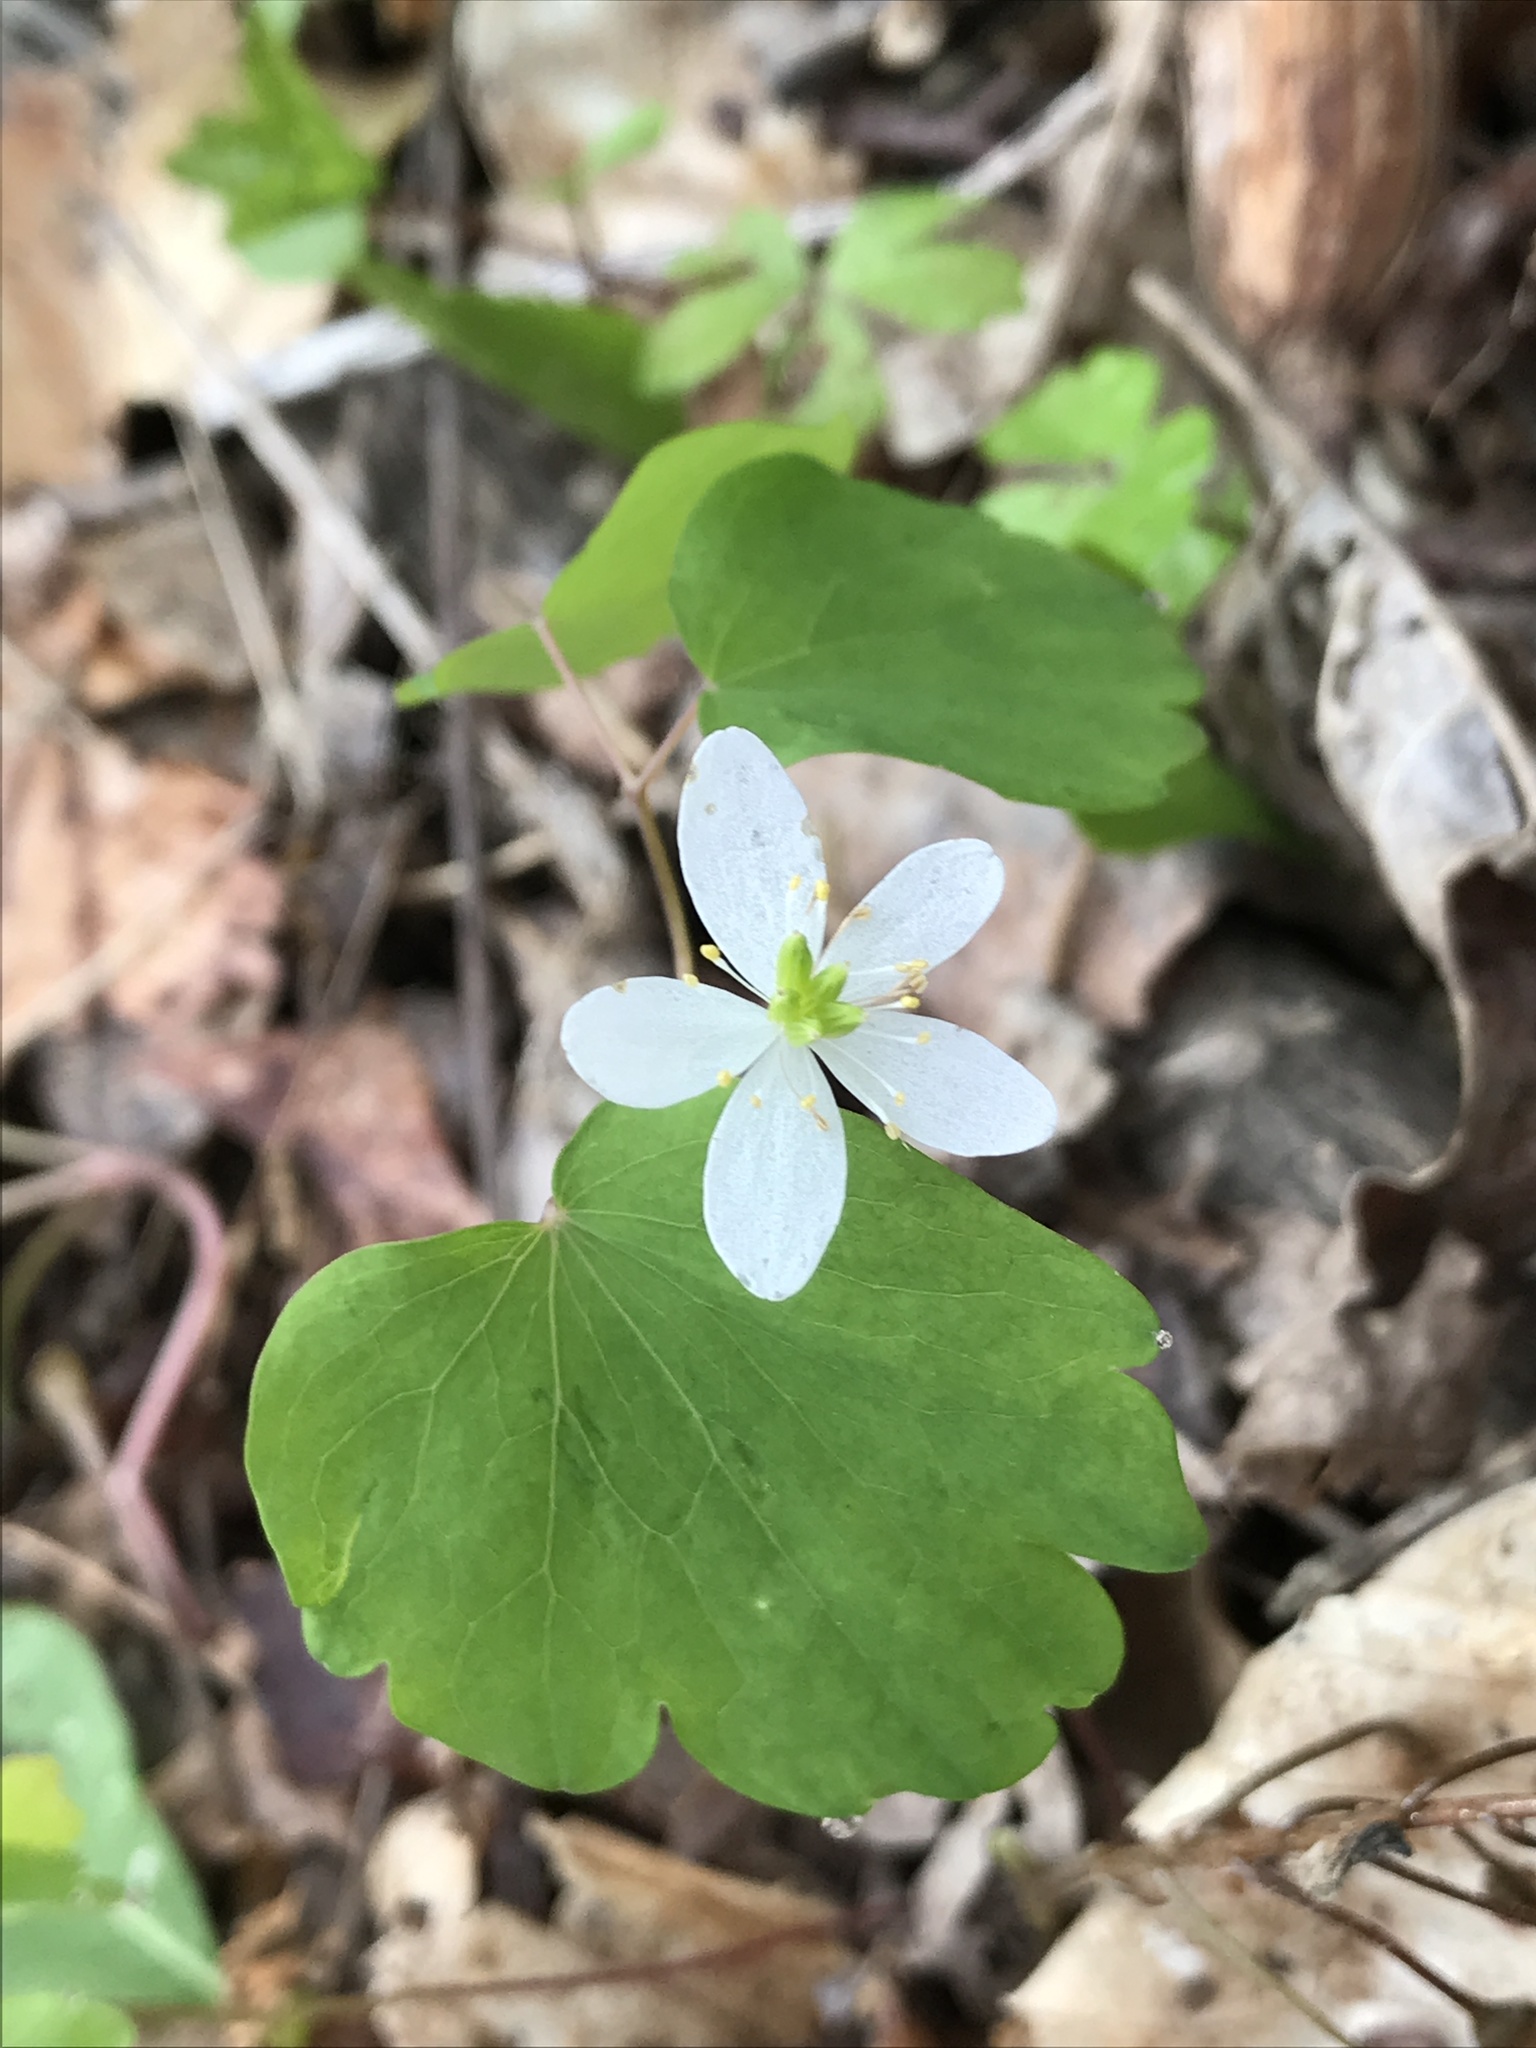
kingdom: Plantae
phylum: Tracheophyta
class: Magnoliopsida
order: Ranunculales
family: Ranunculaceae
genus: Thalictrum
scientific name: Thalictrum thalictroides
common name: Rue-anemone
